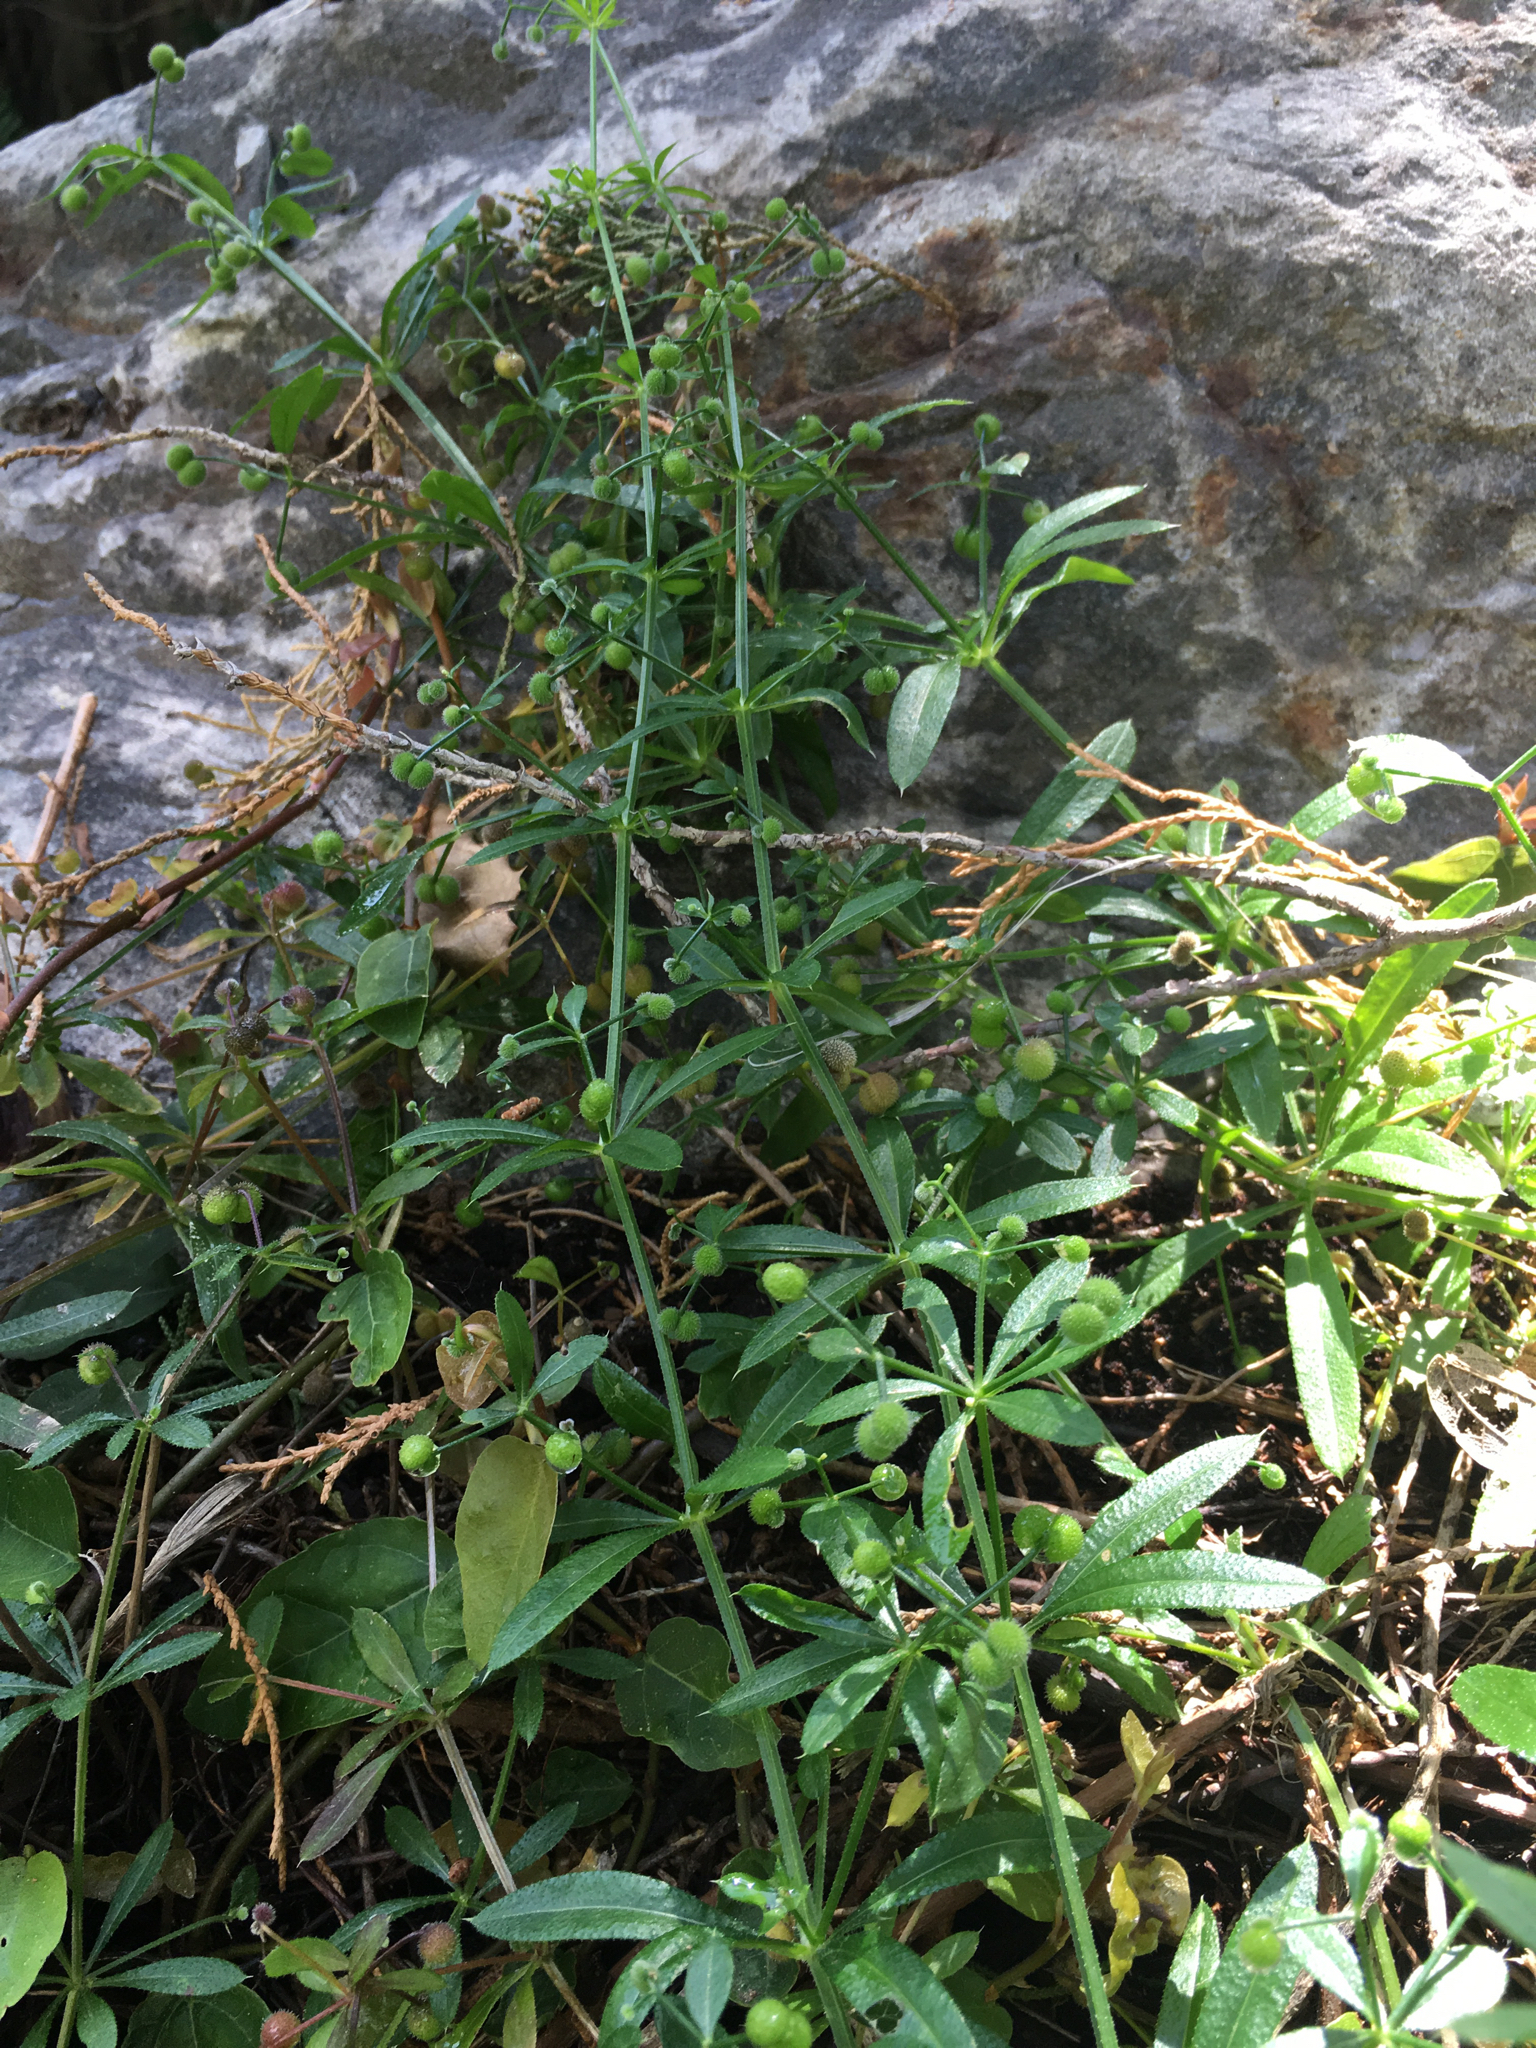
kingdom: Plantae
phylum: Tracheophyta
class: Magnoliopsida
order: Gentianales
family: Rubiaceae
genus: Galium
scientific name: Galium aparine
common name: Cleavers
